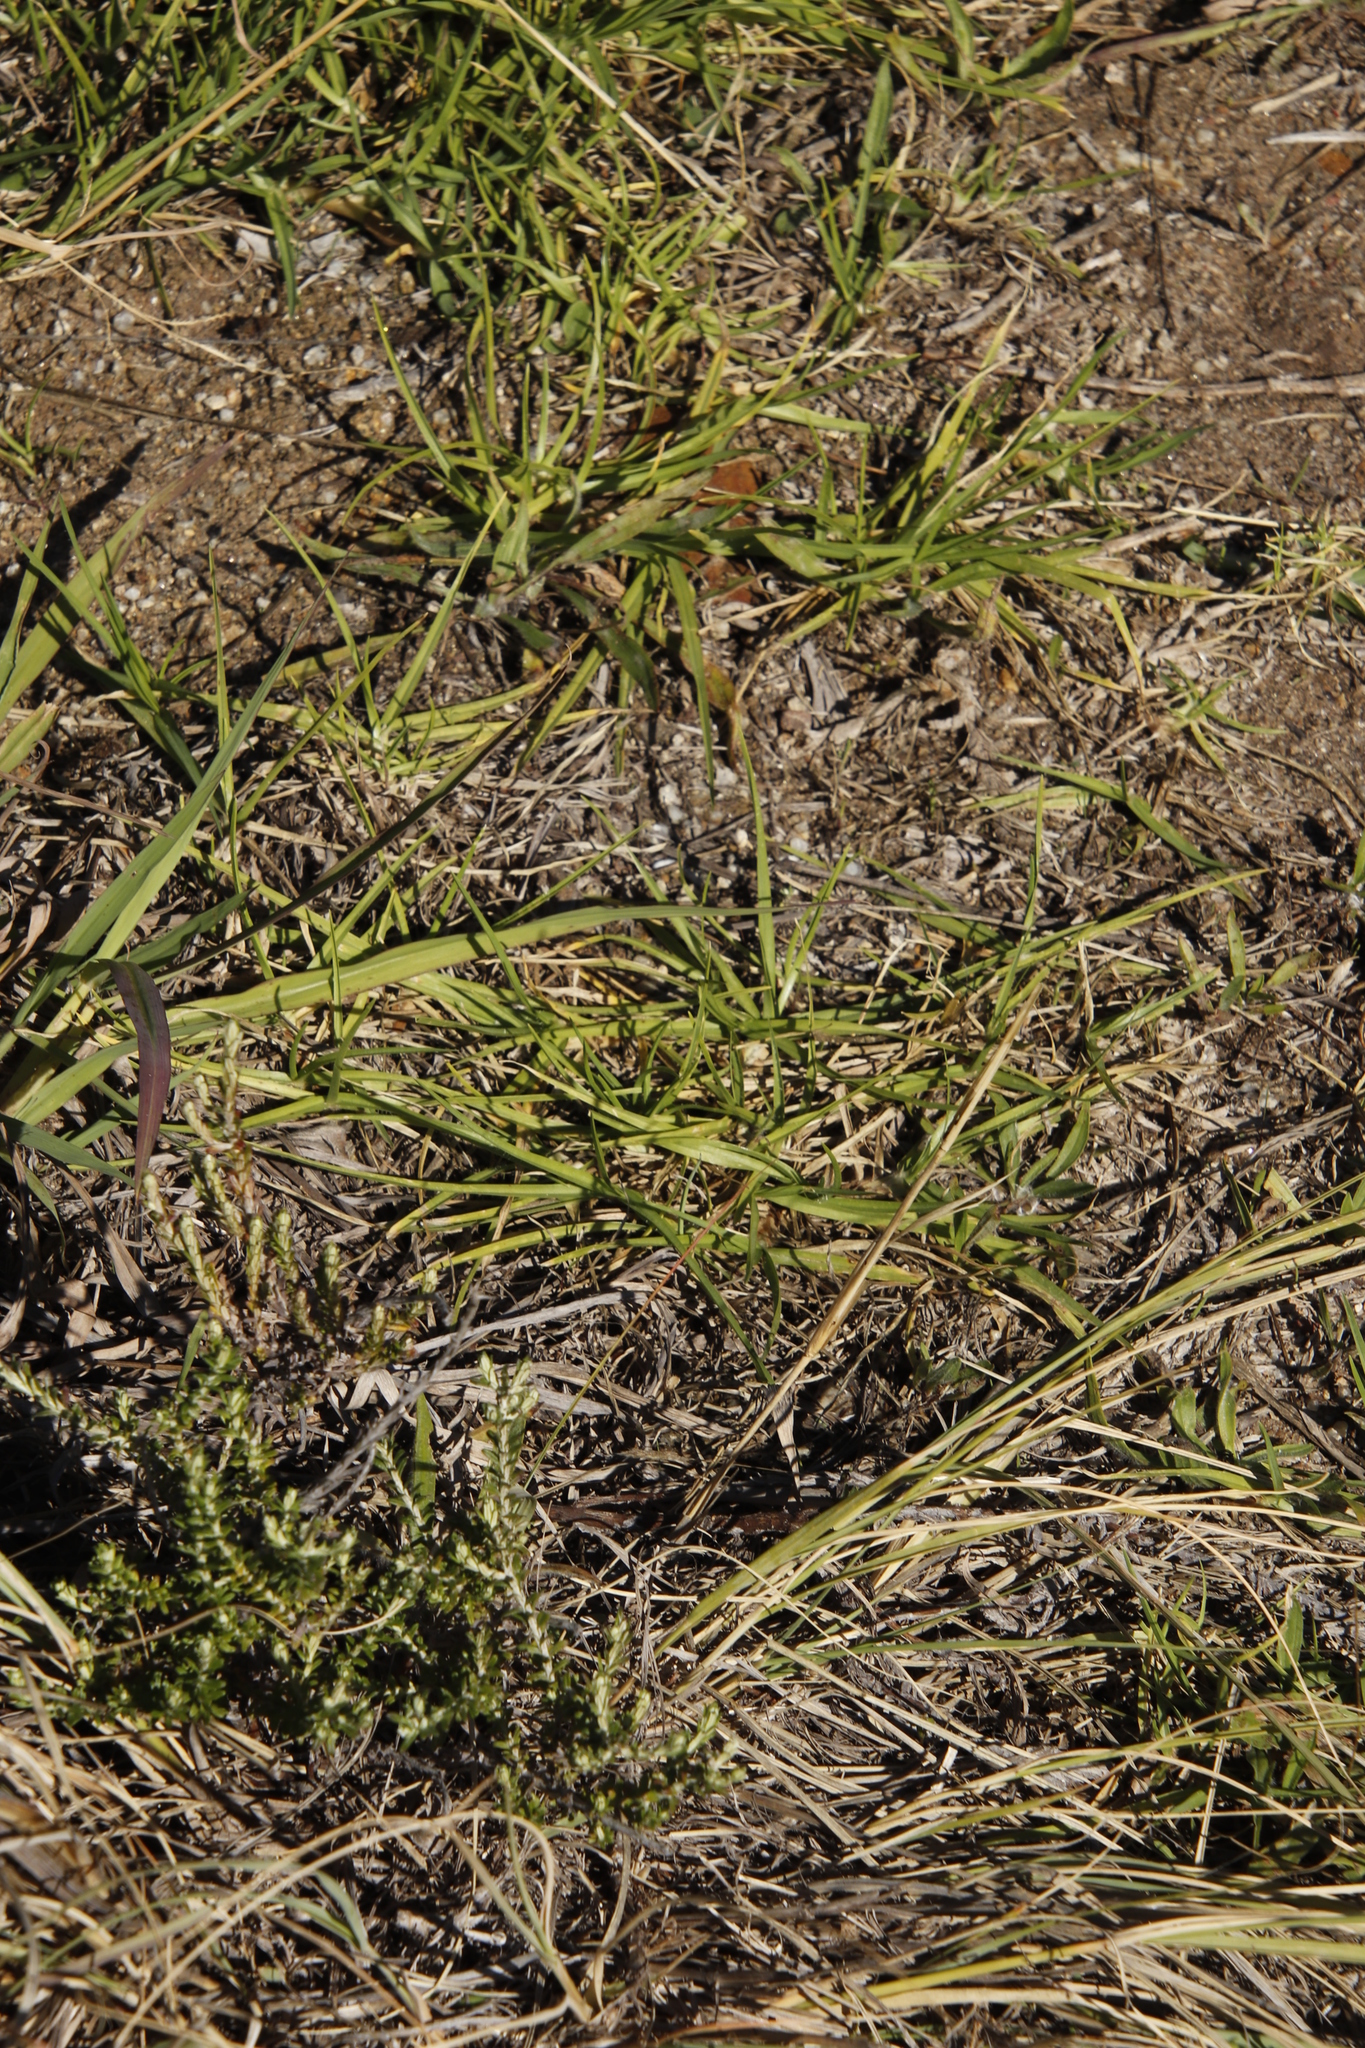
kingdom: Plantae
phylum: Tracheophyta
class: Liliopsida
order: Poales
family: Poaceae
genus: Cenchrus
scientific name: Cenchrus clandestinus
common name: Kikuyugrass
